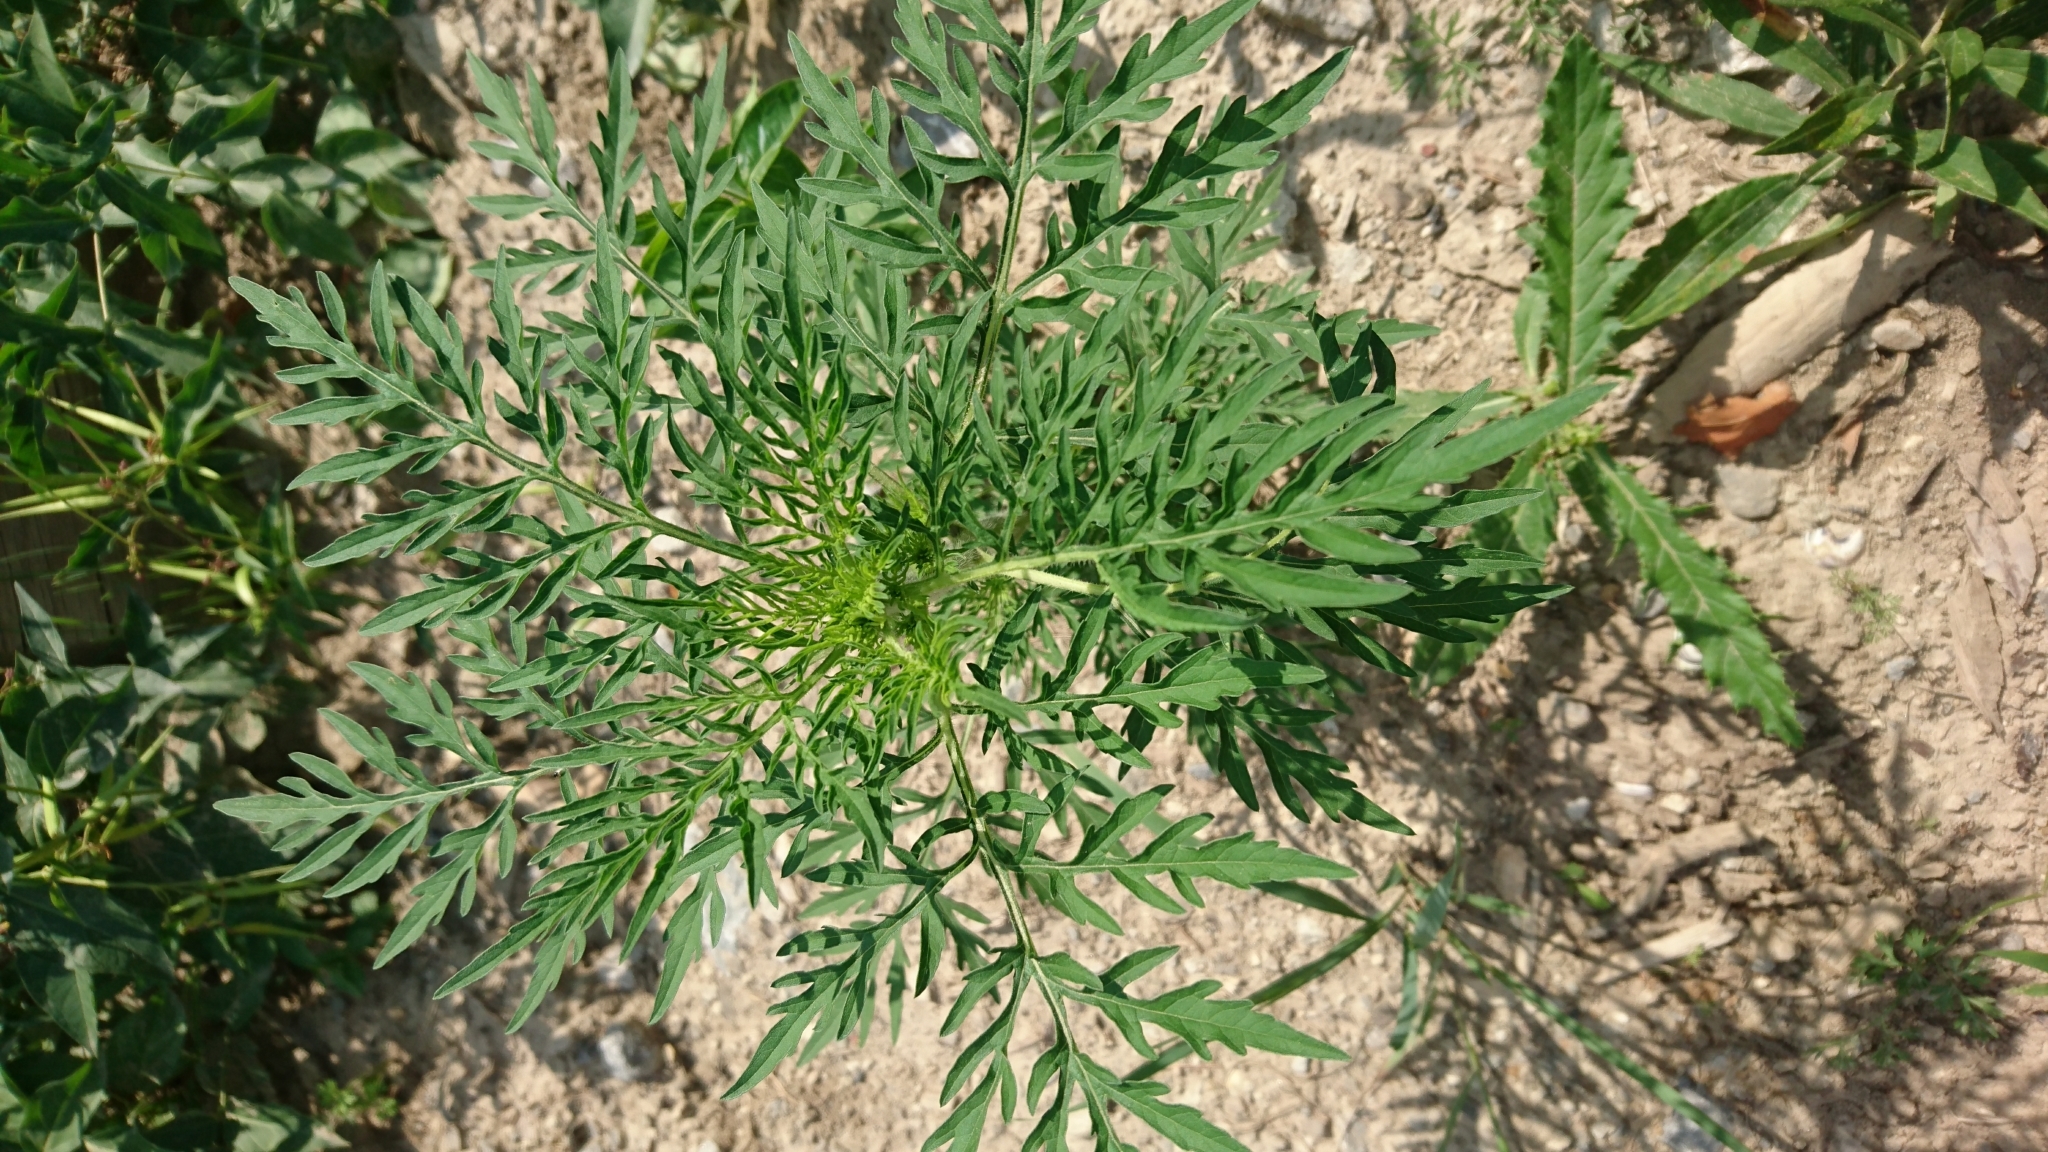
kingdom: Plantae
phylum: Tracheophyta
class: Magnoliopsida
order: Asterales
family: Asteraceae
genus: Ambrosia
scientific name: Ambrosia artemisiifolia
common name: Annual ragweed
